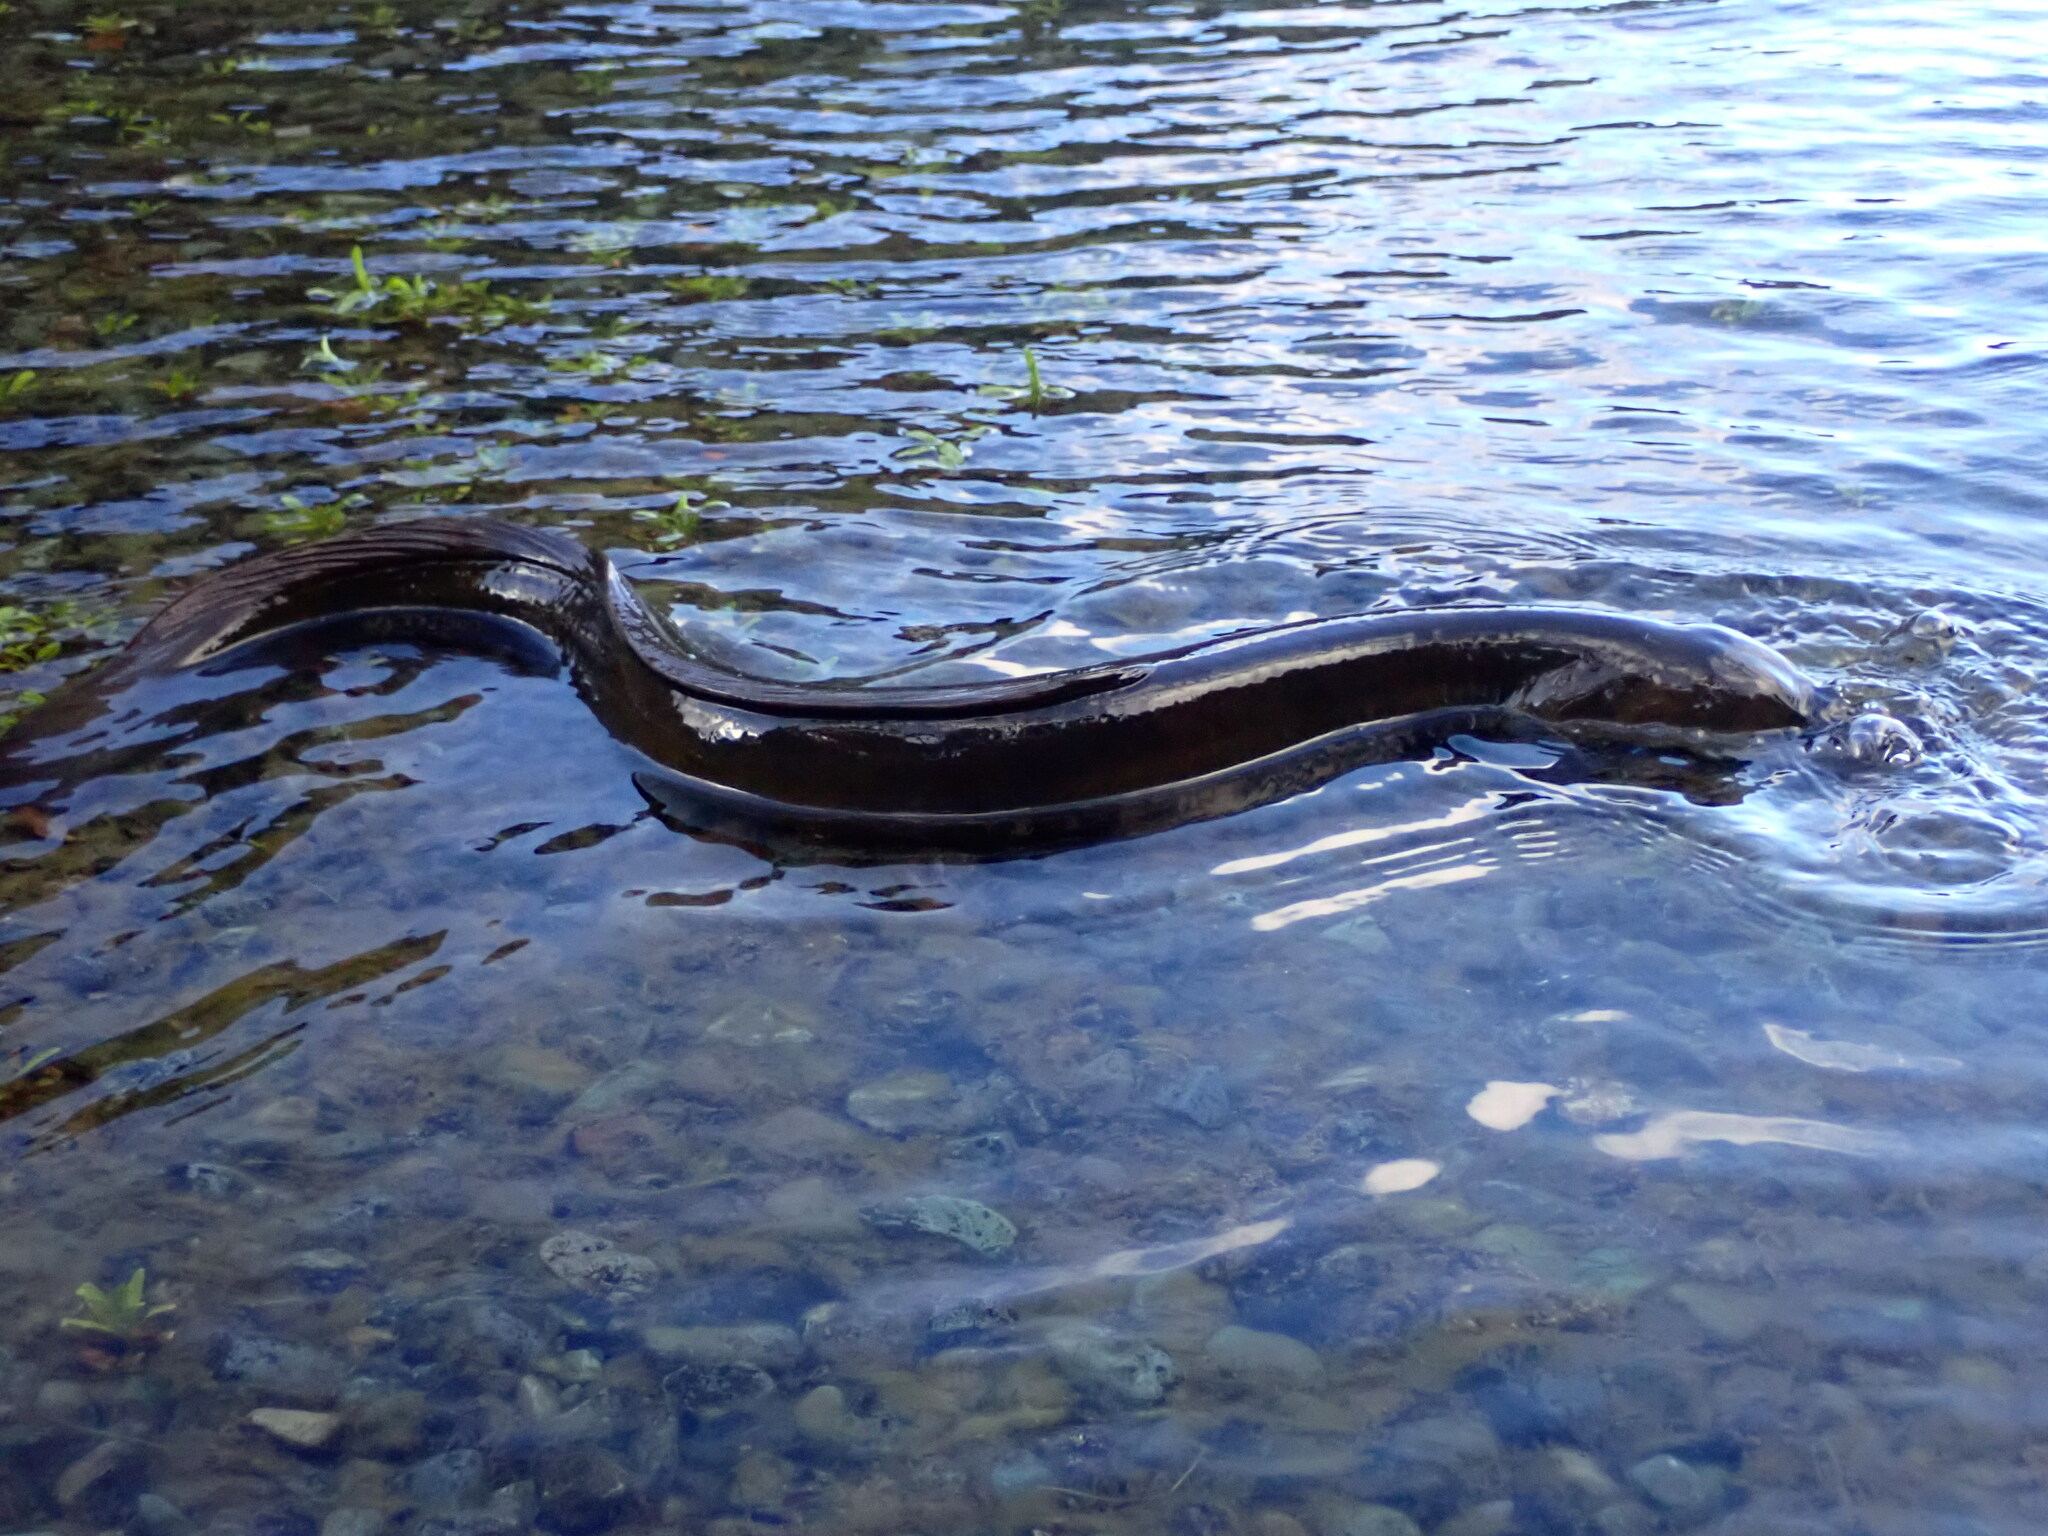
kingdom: Animalia
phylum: Chordata
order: Anguilliformes
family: Anguillidae
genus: Anguilla
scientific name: Anguilla dieffenbachii
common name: New zealand longfin eel
